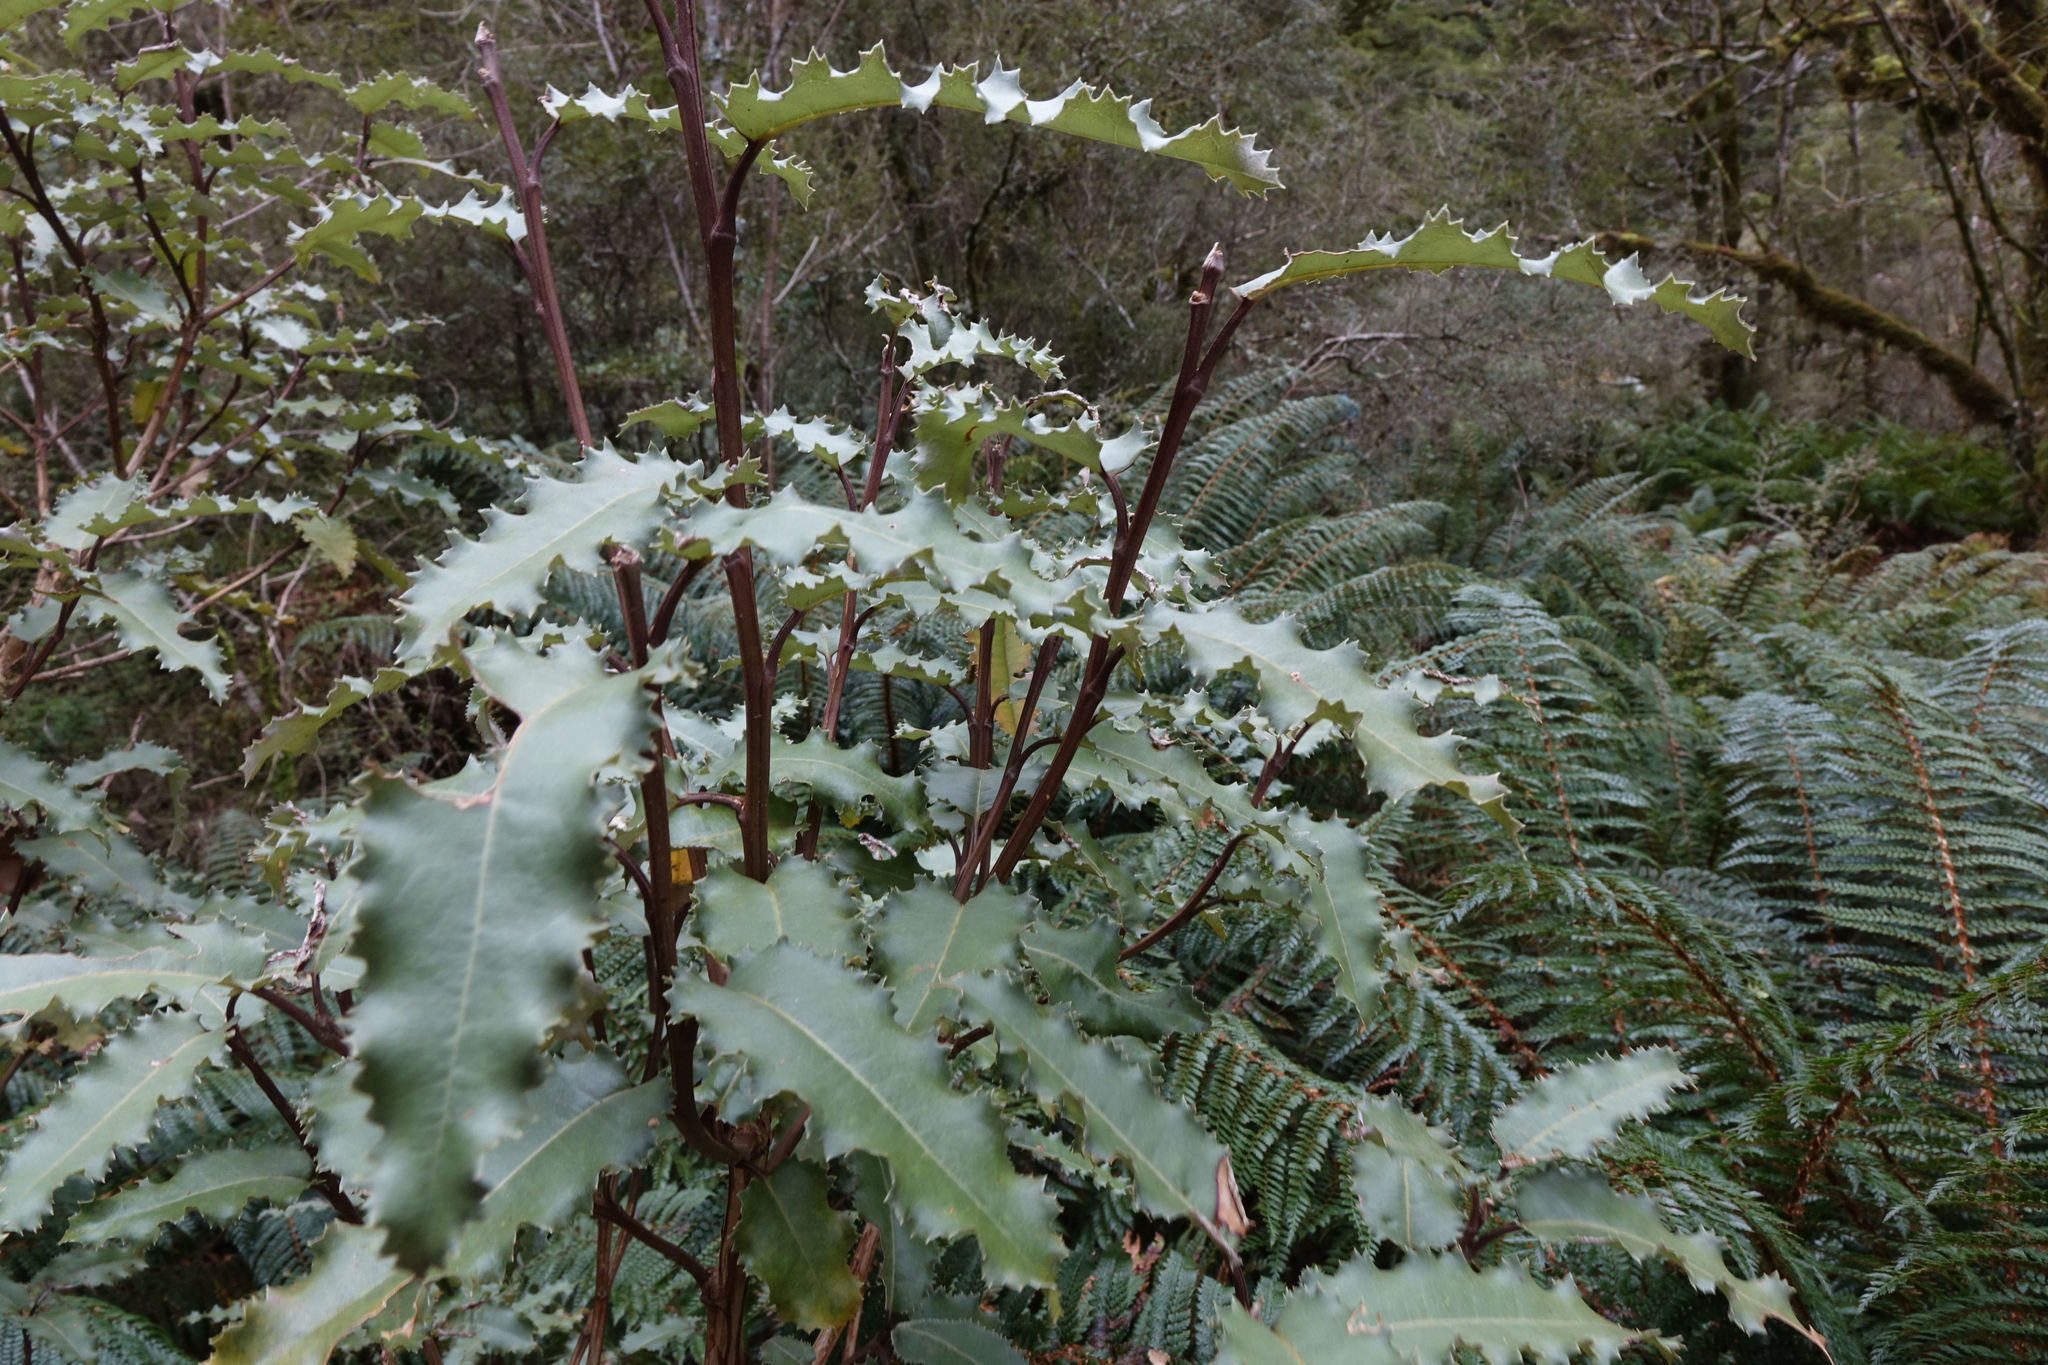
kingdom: Plantae
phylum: Tracheophyta
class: Magnoliopsida
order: Asterales
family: Asteraceae
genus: Olearia
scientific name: Olearia ilicifolia
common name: Maori-holly
